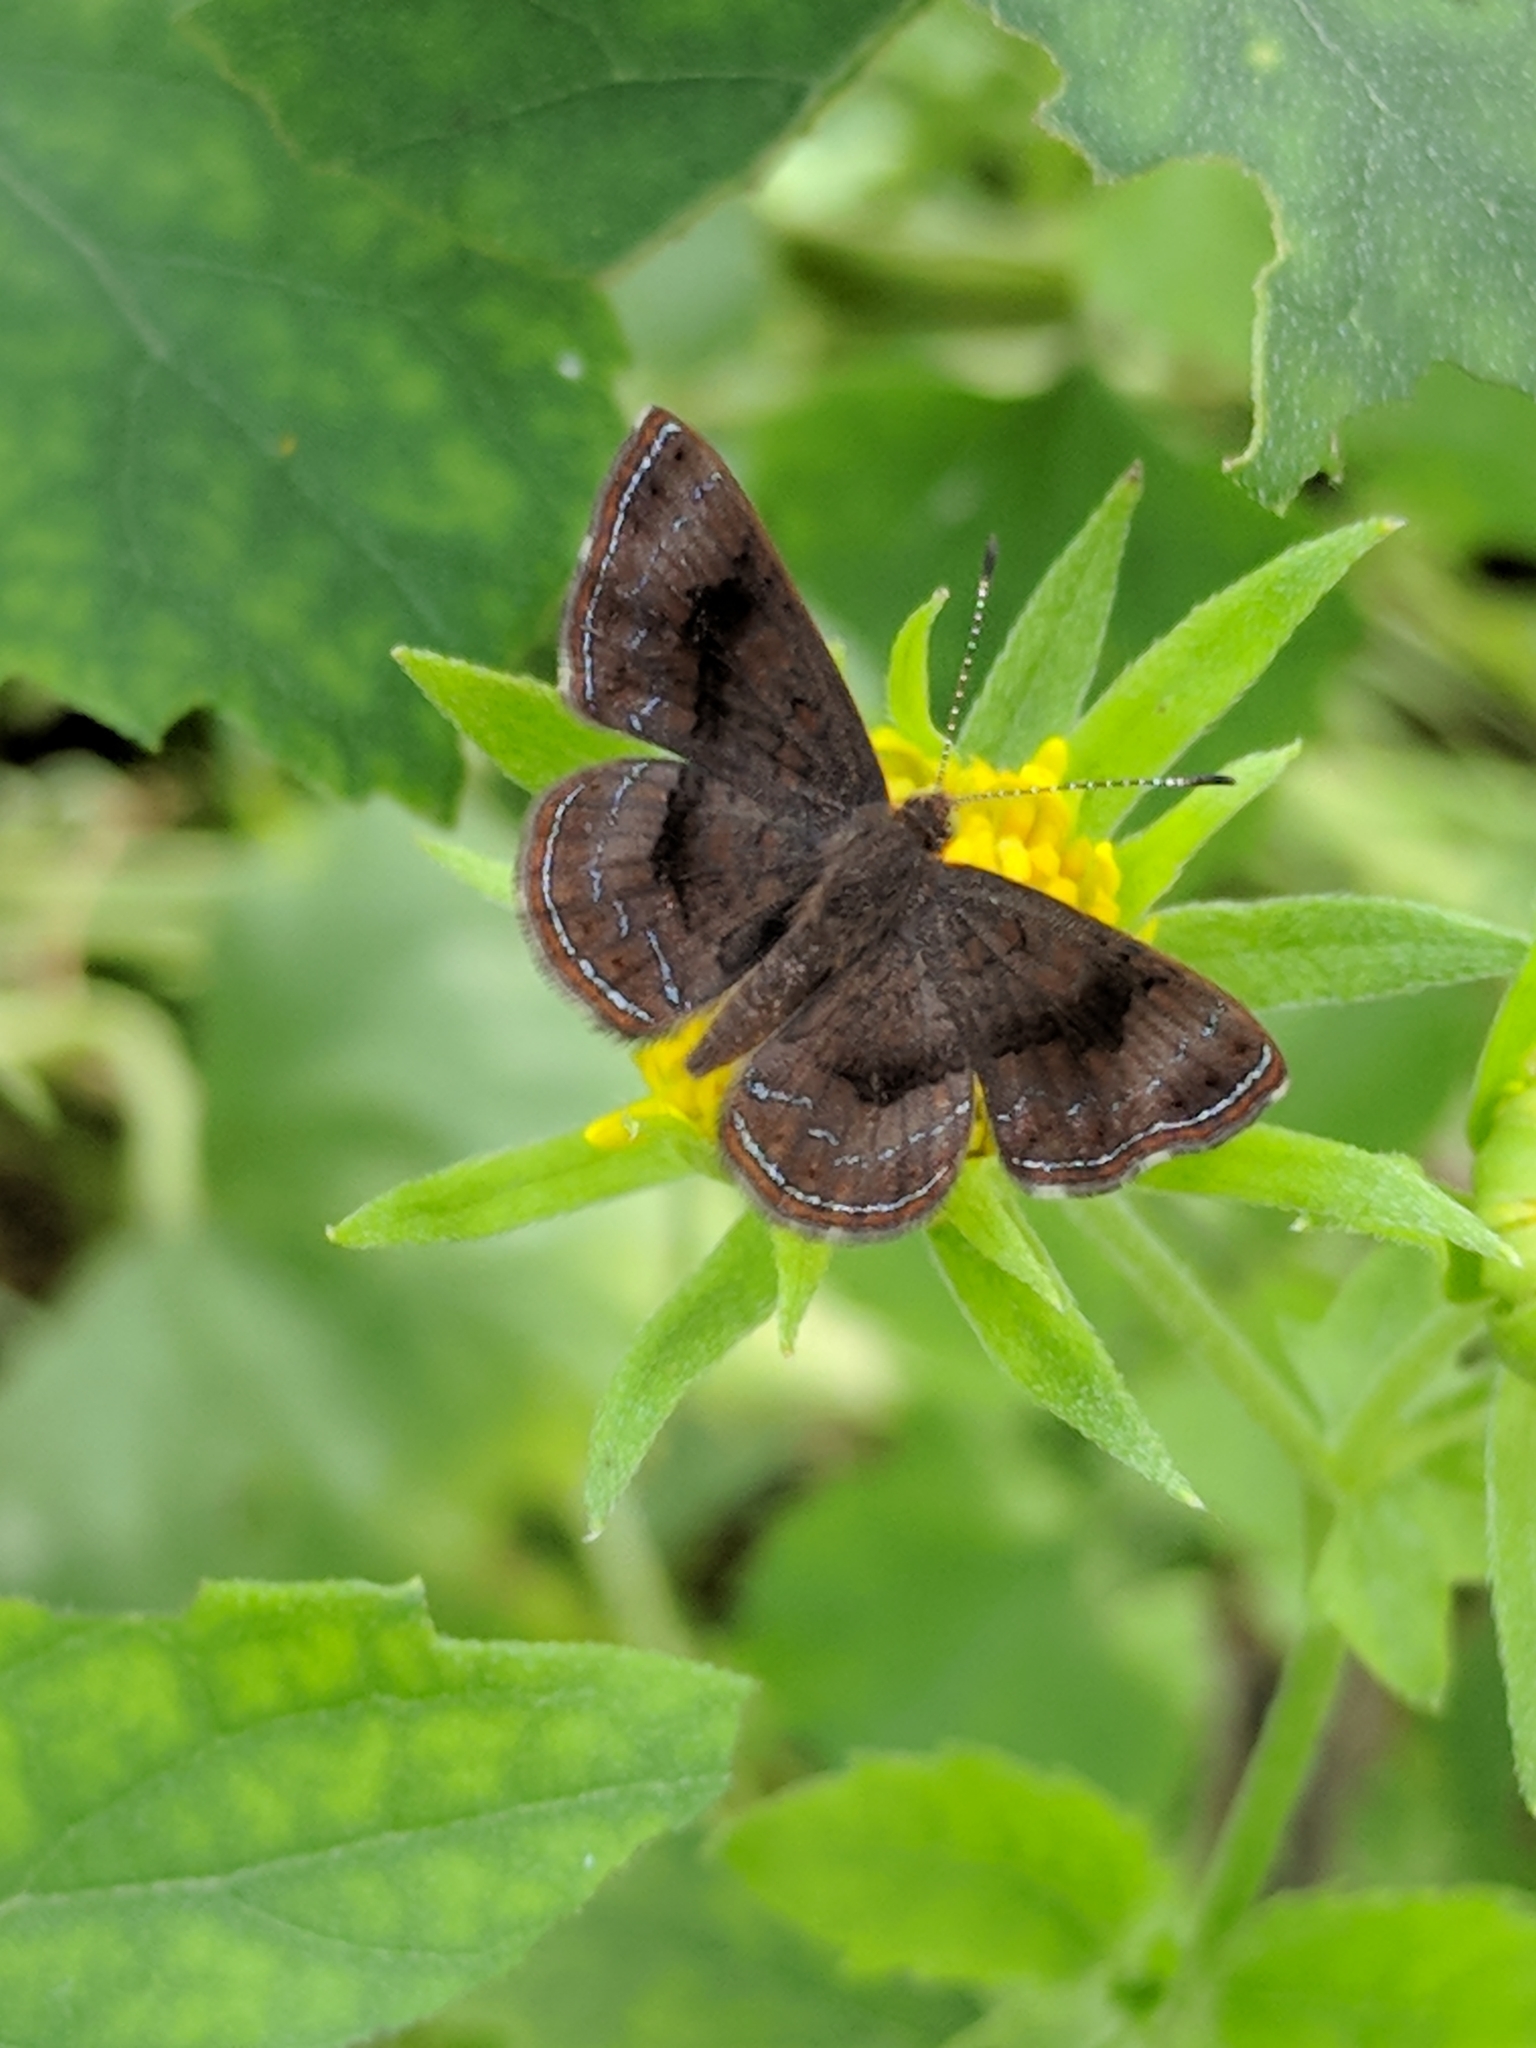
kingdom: Animalia
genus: Calephelis
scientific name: Calephelis nemesis
